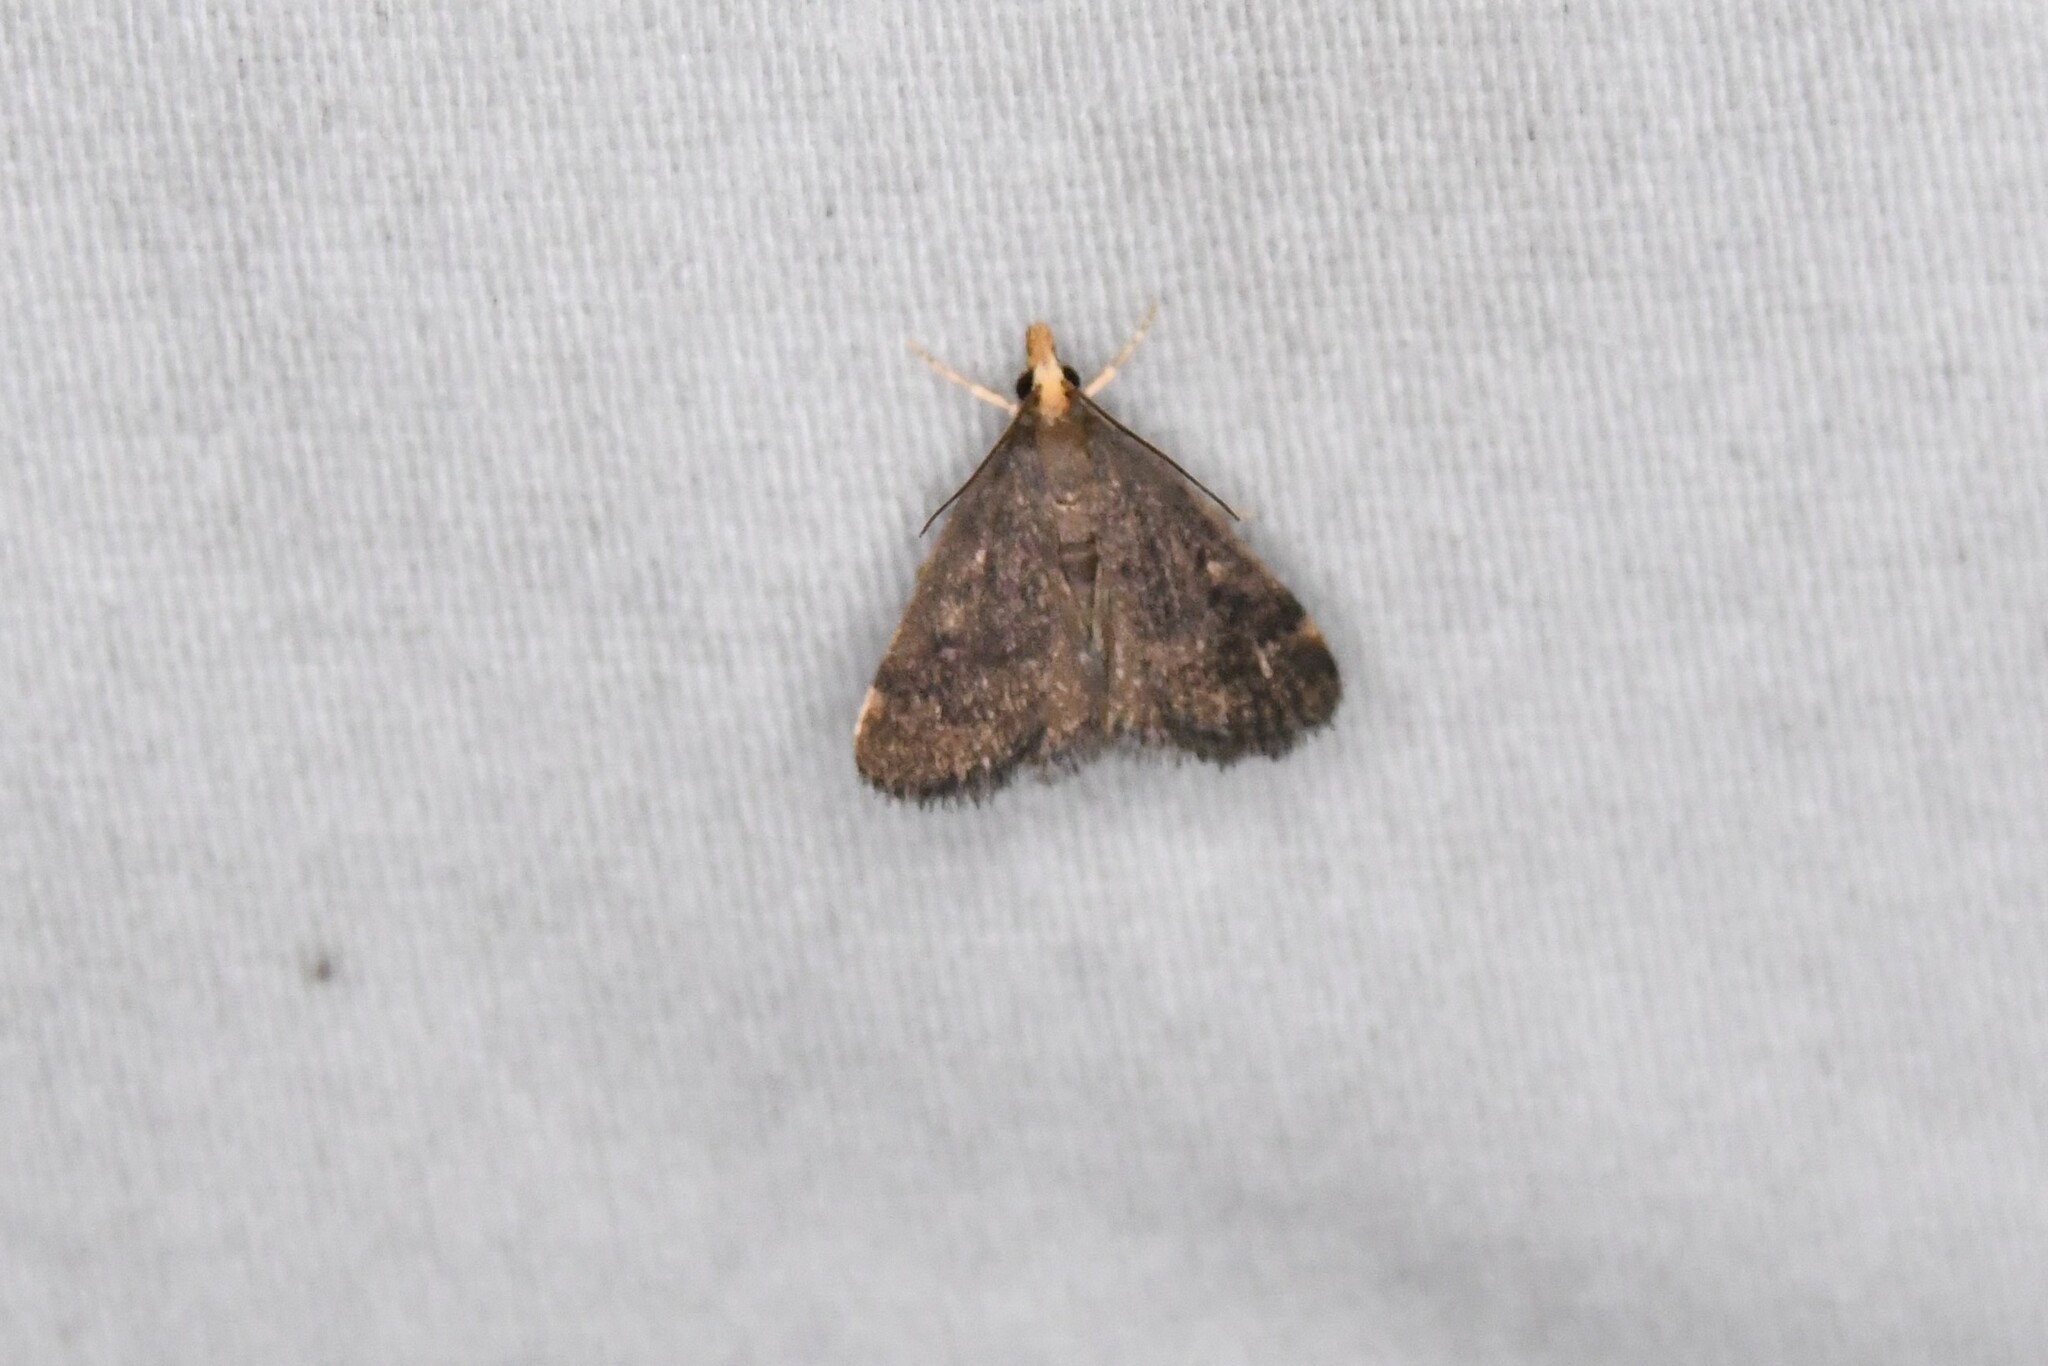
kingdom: Animalia
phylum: Arthropoda
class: Insecta
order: Lepidoptera
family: Crambidae
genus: Pyrausta
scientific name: Pyrausta merrickalis
